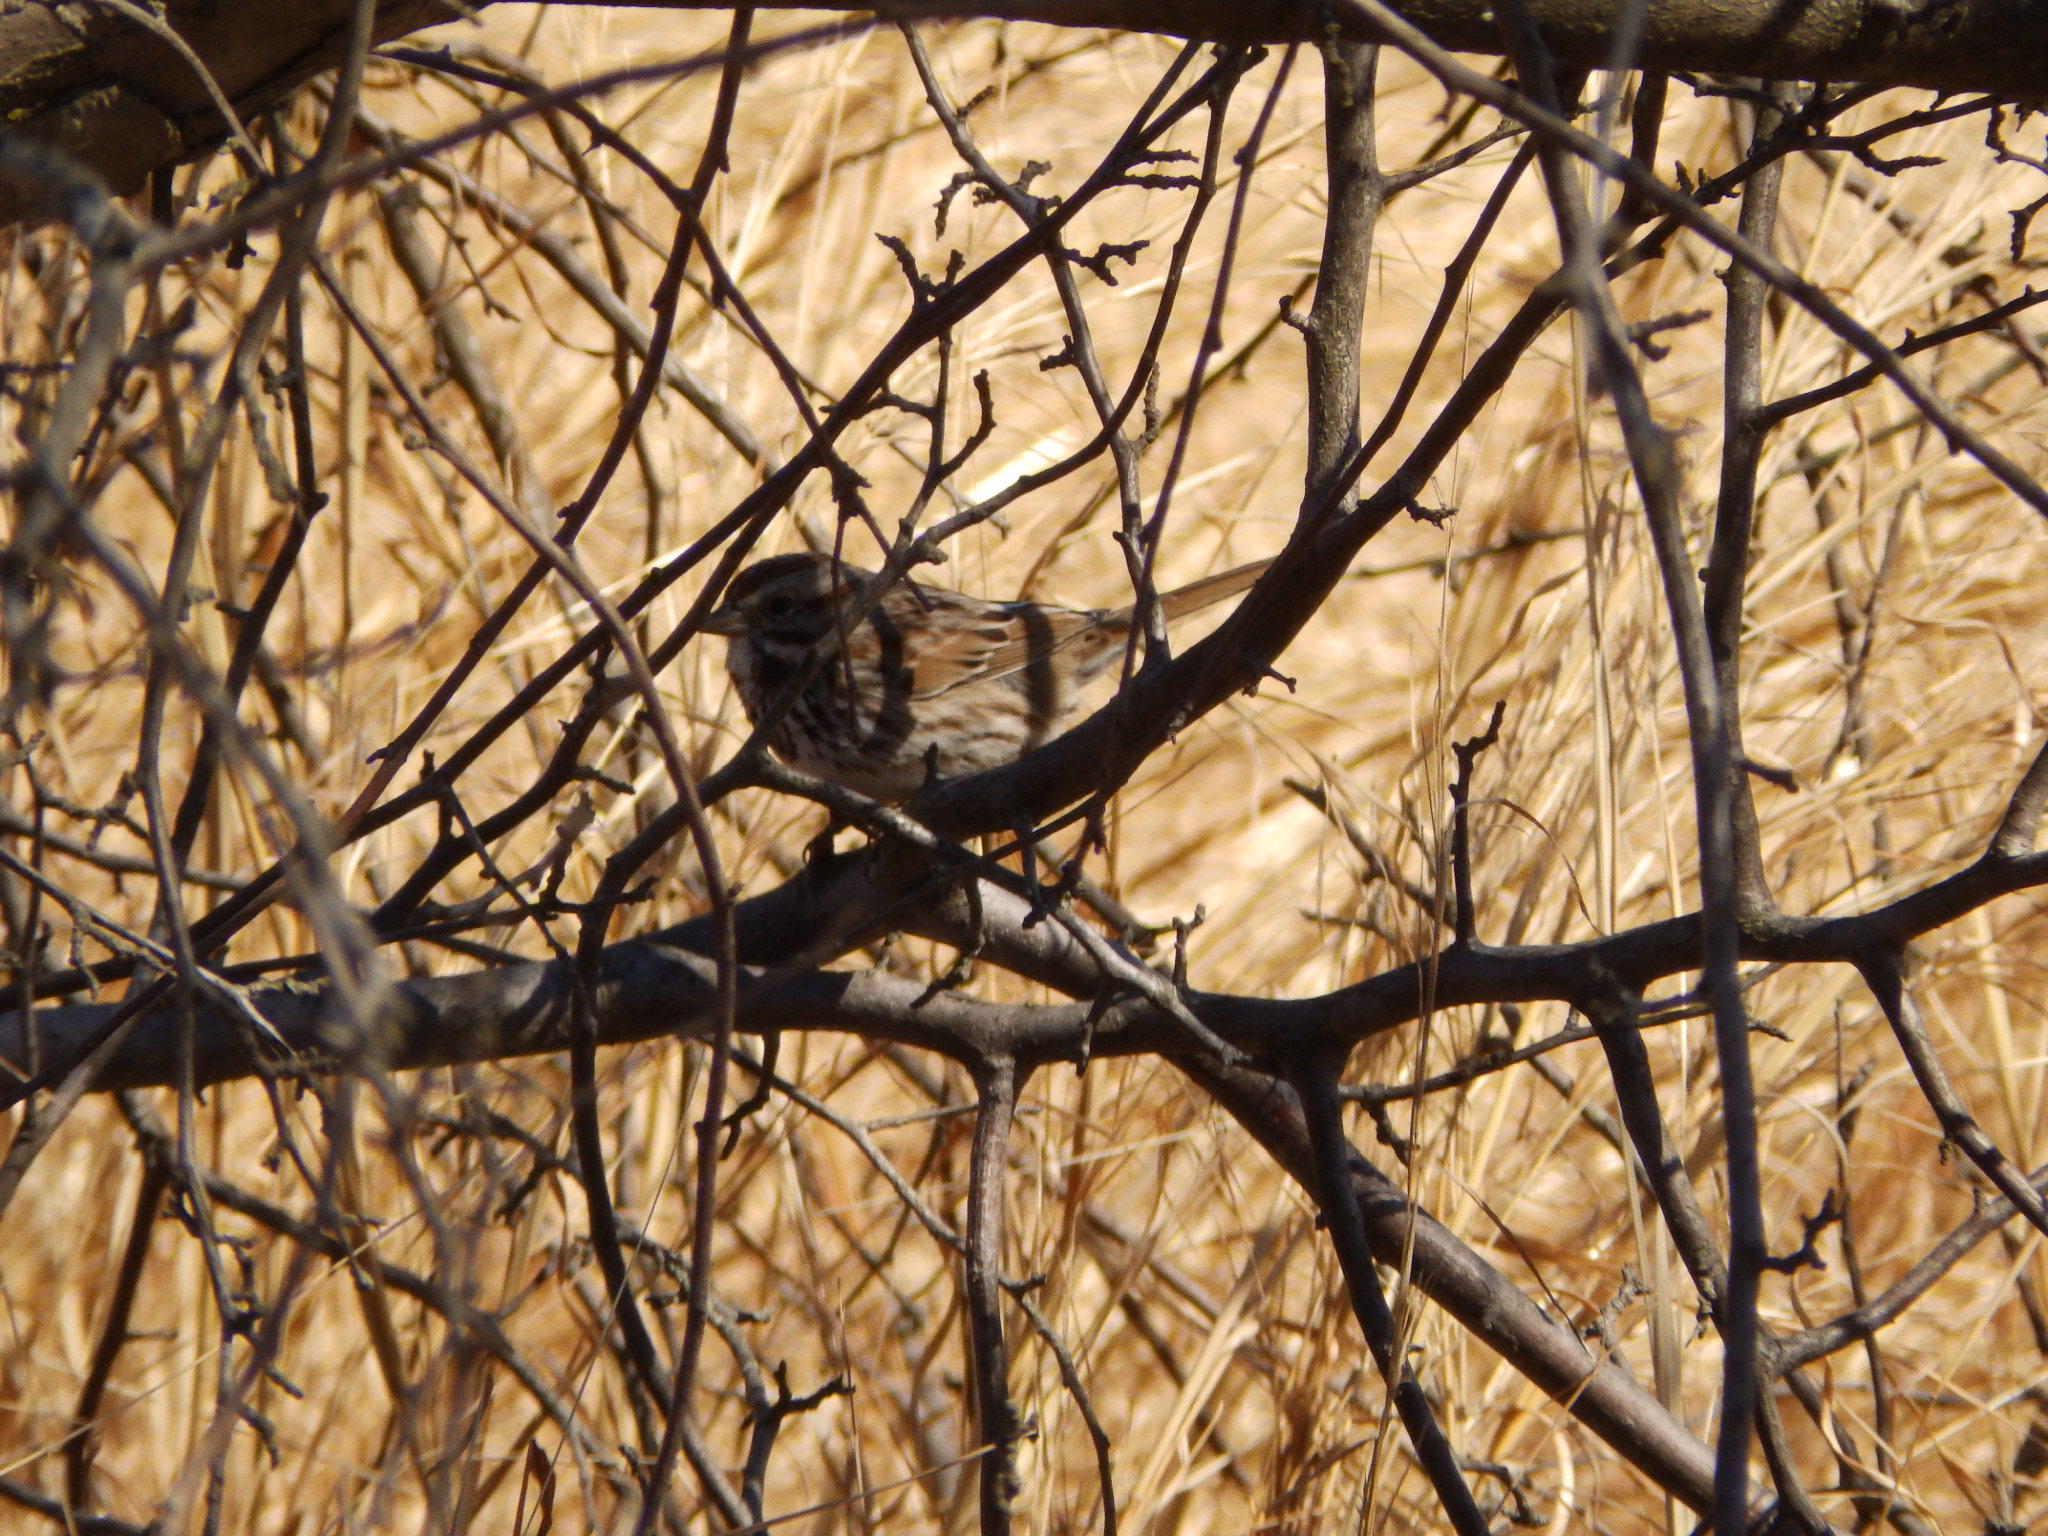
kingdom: Animalia
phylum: Chordata
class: Aves
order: Passeriformes
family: Passerellidae
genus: Melospiza
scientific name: Melospiza melodia
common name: Song sparrow
